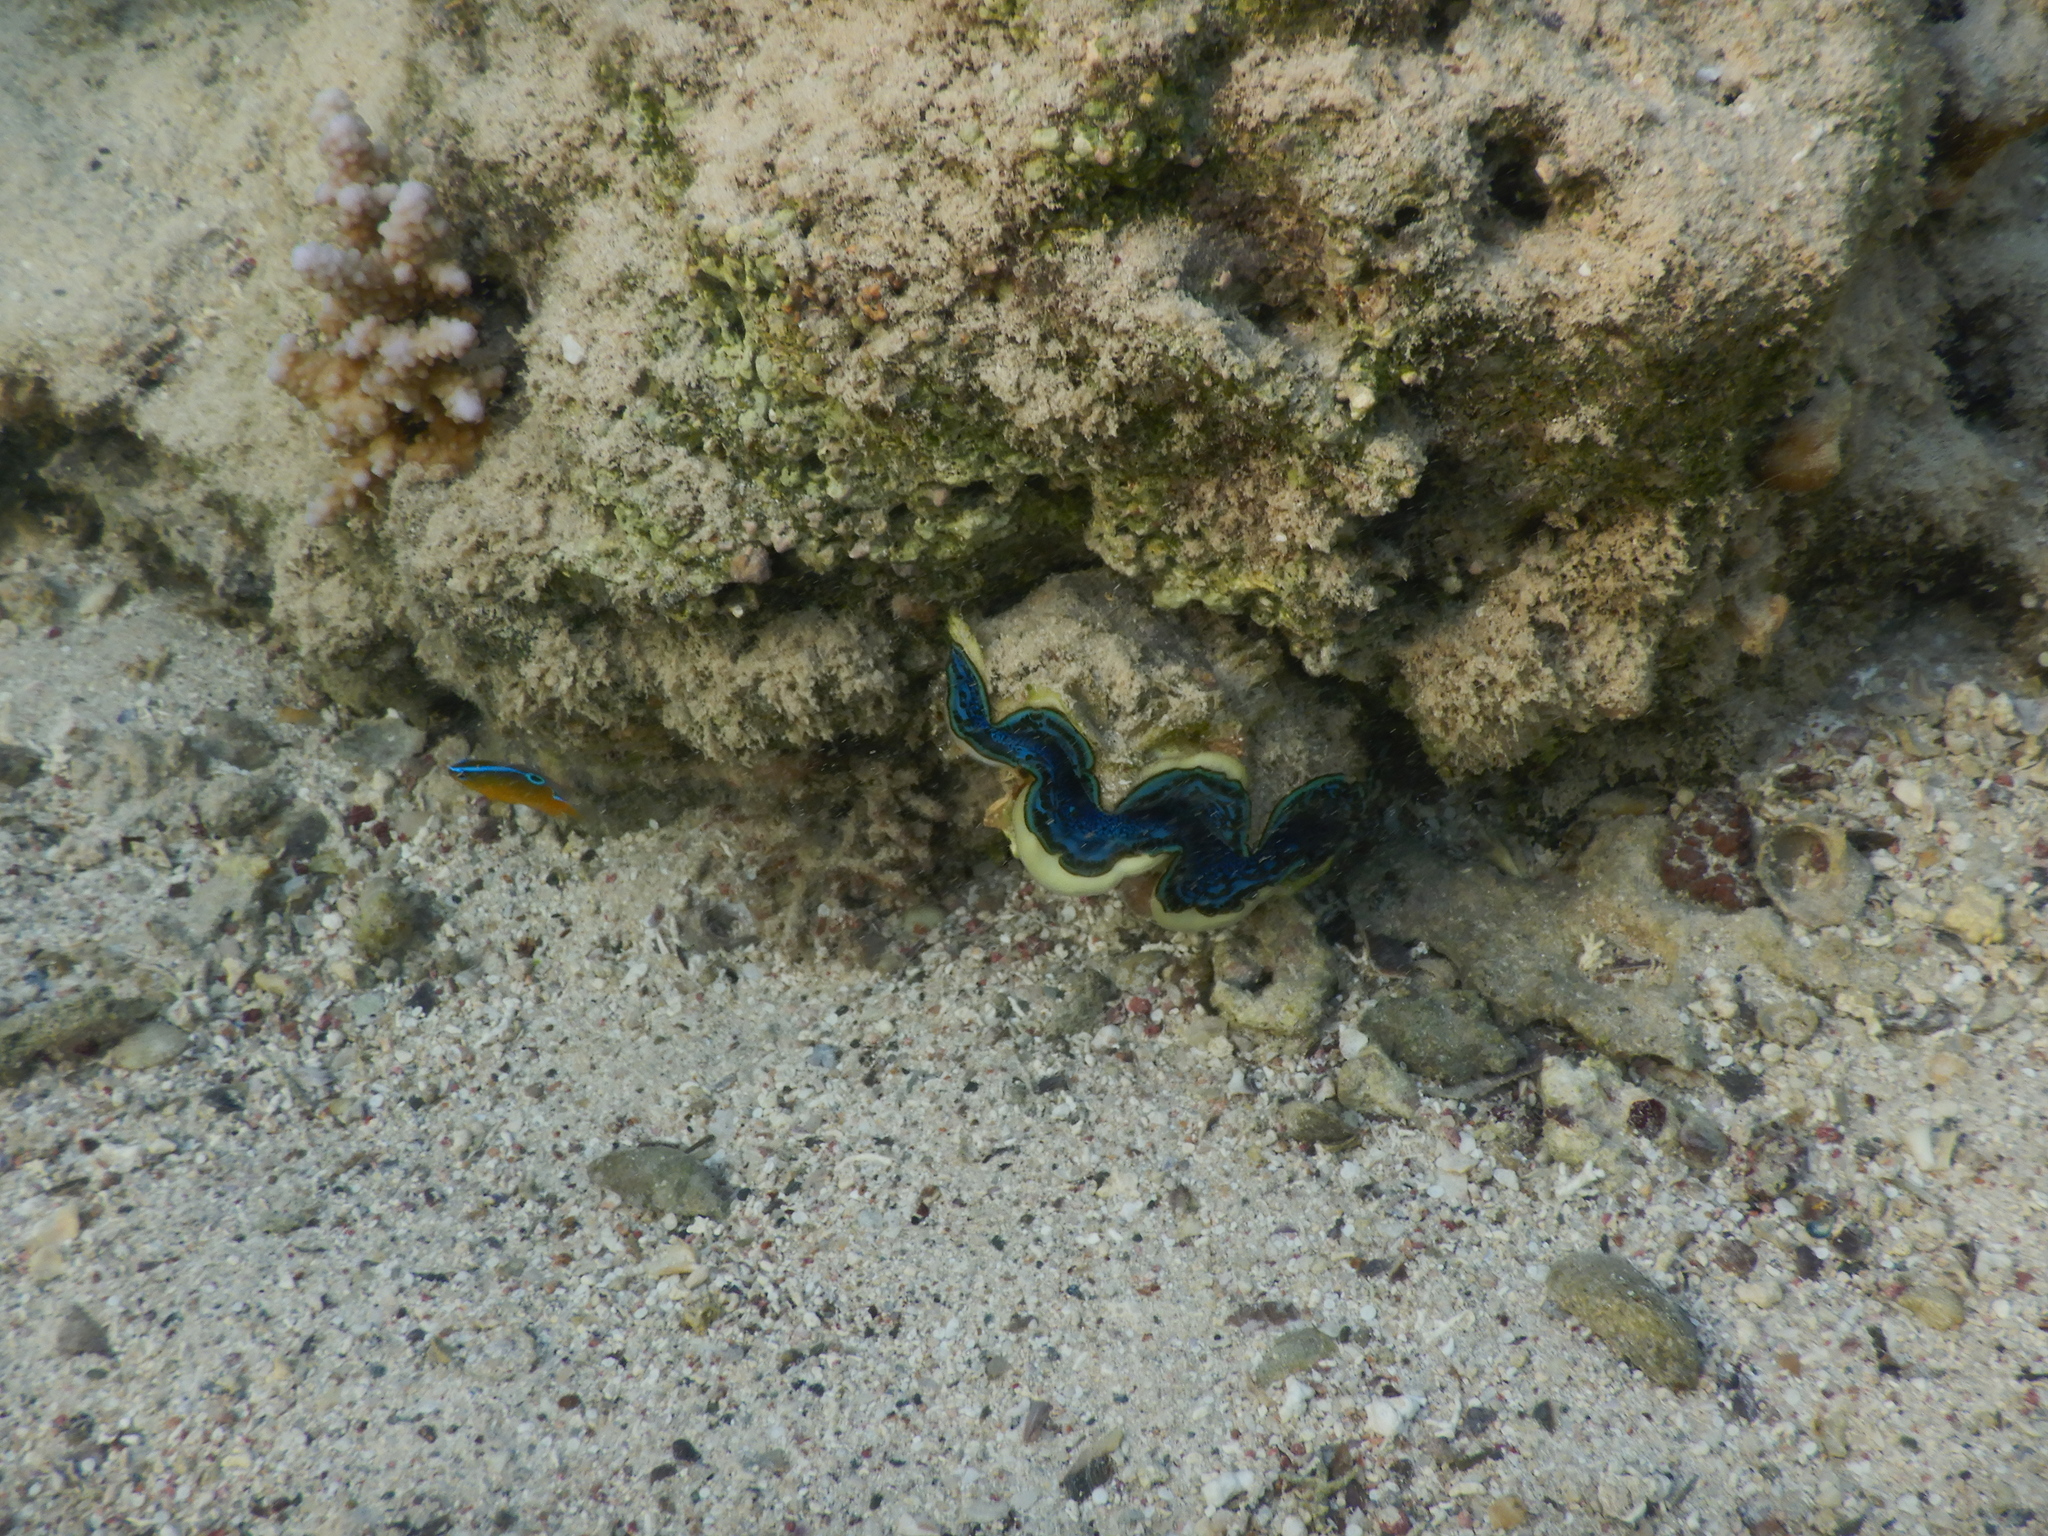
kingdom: Animalia
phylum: Mollusca
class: Bivalvia
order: Cardiida
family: Cardiidae
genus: Tridacna
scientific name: Tridacna maxima
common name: Small giant clam
